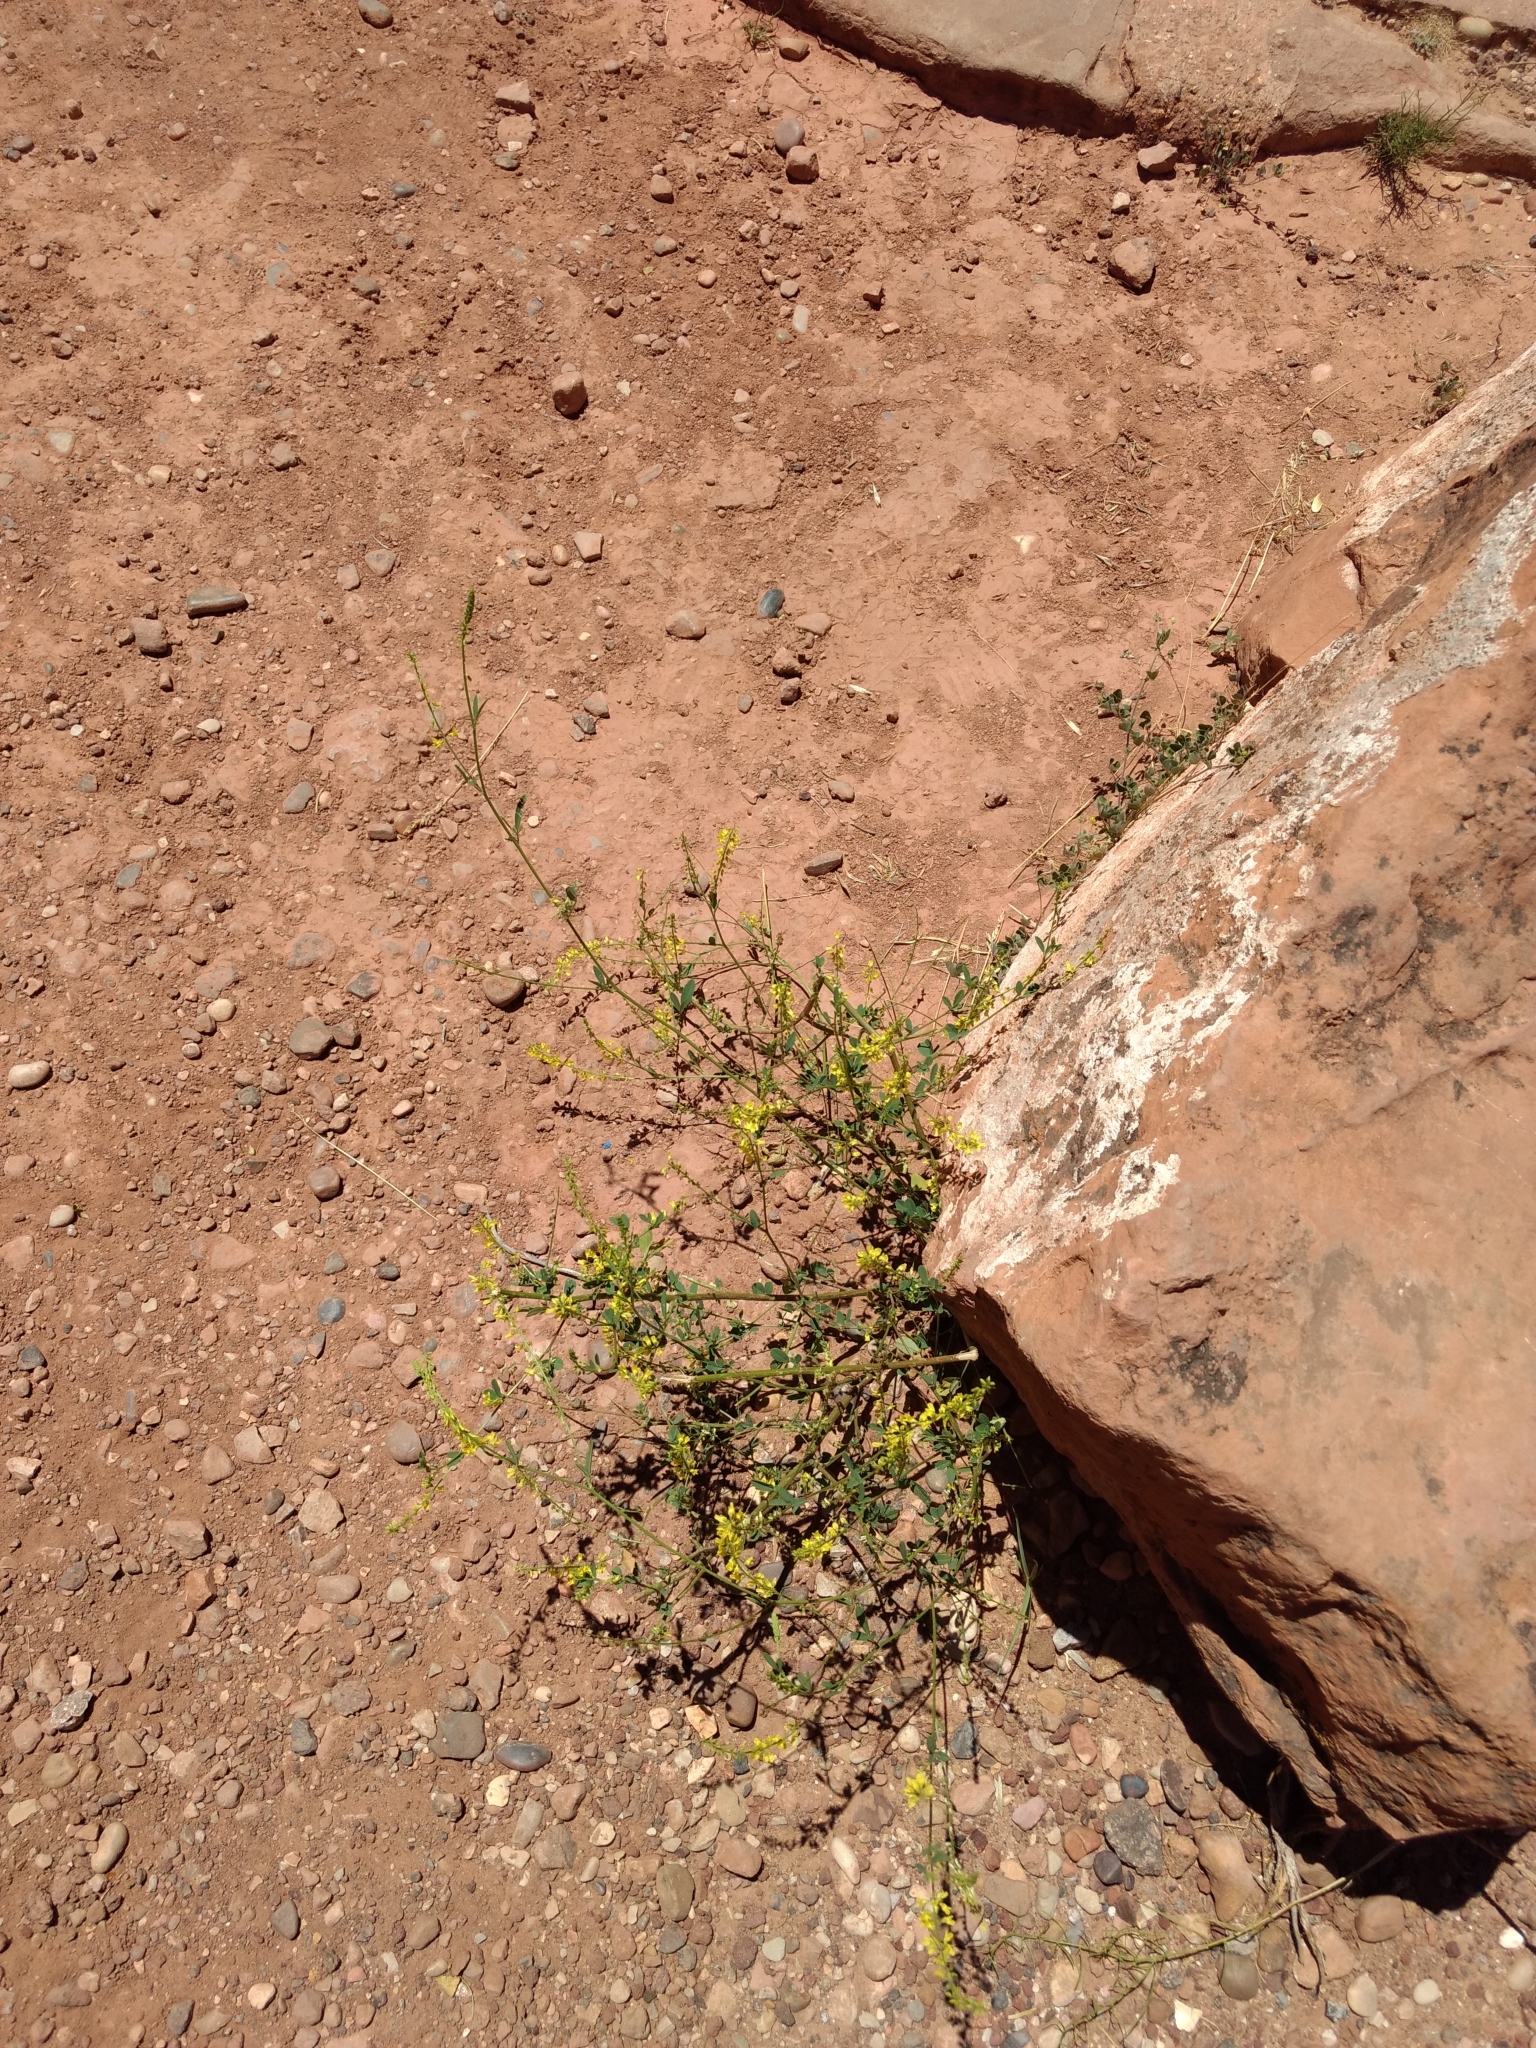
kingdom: Plantae
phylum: Tracheophyta
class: Magnoliopsida
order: Fabales
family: Fabaceae
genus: Melilotus
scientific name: Melilotus officinalis
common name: Sweetclover
